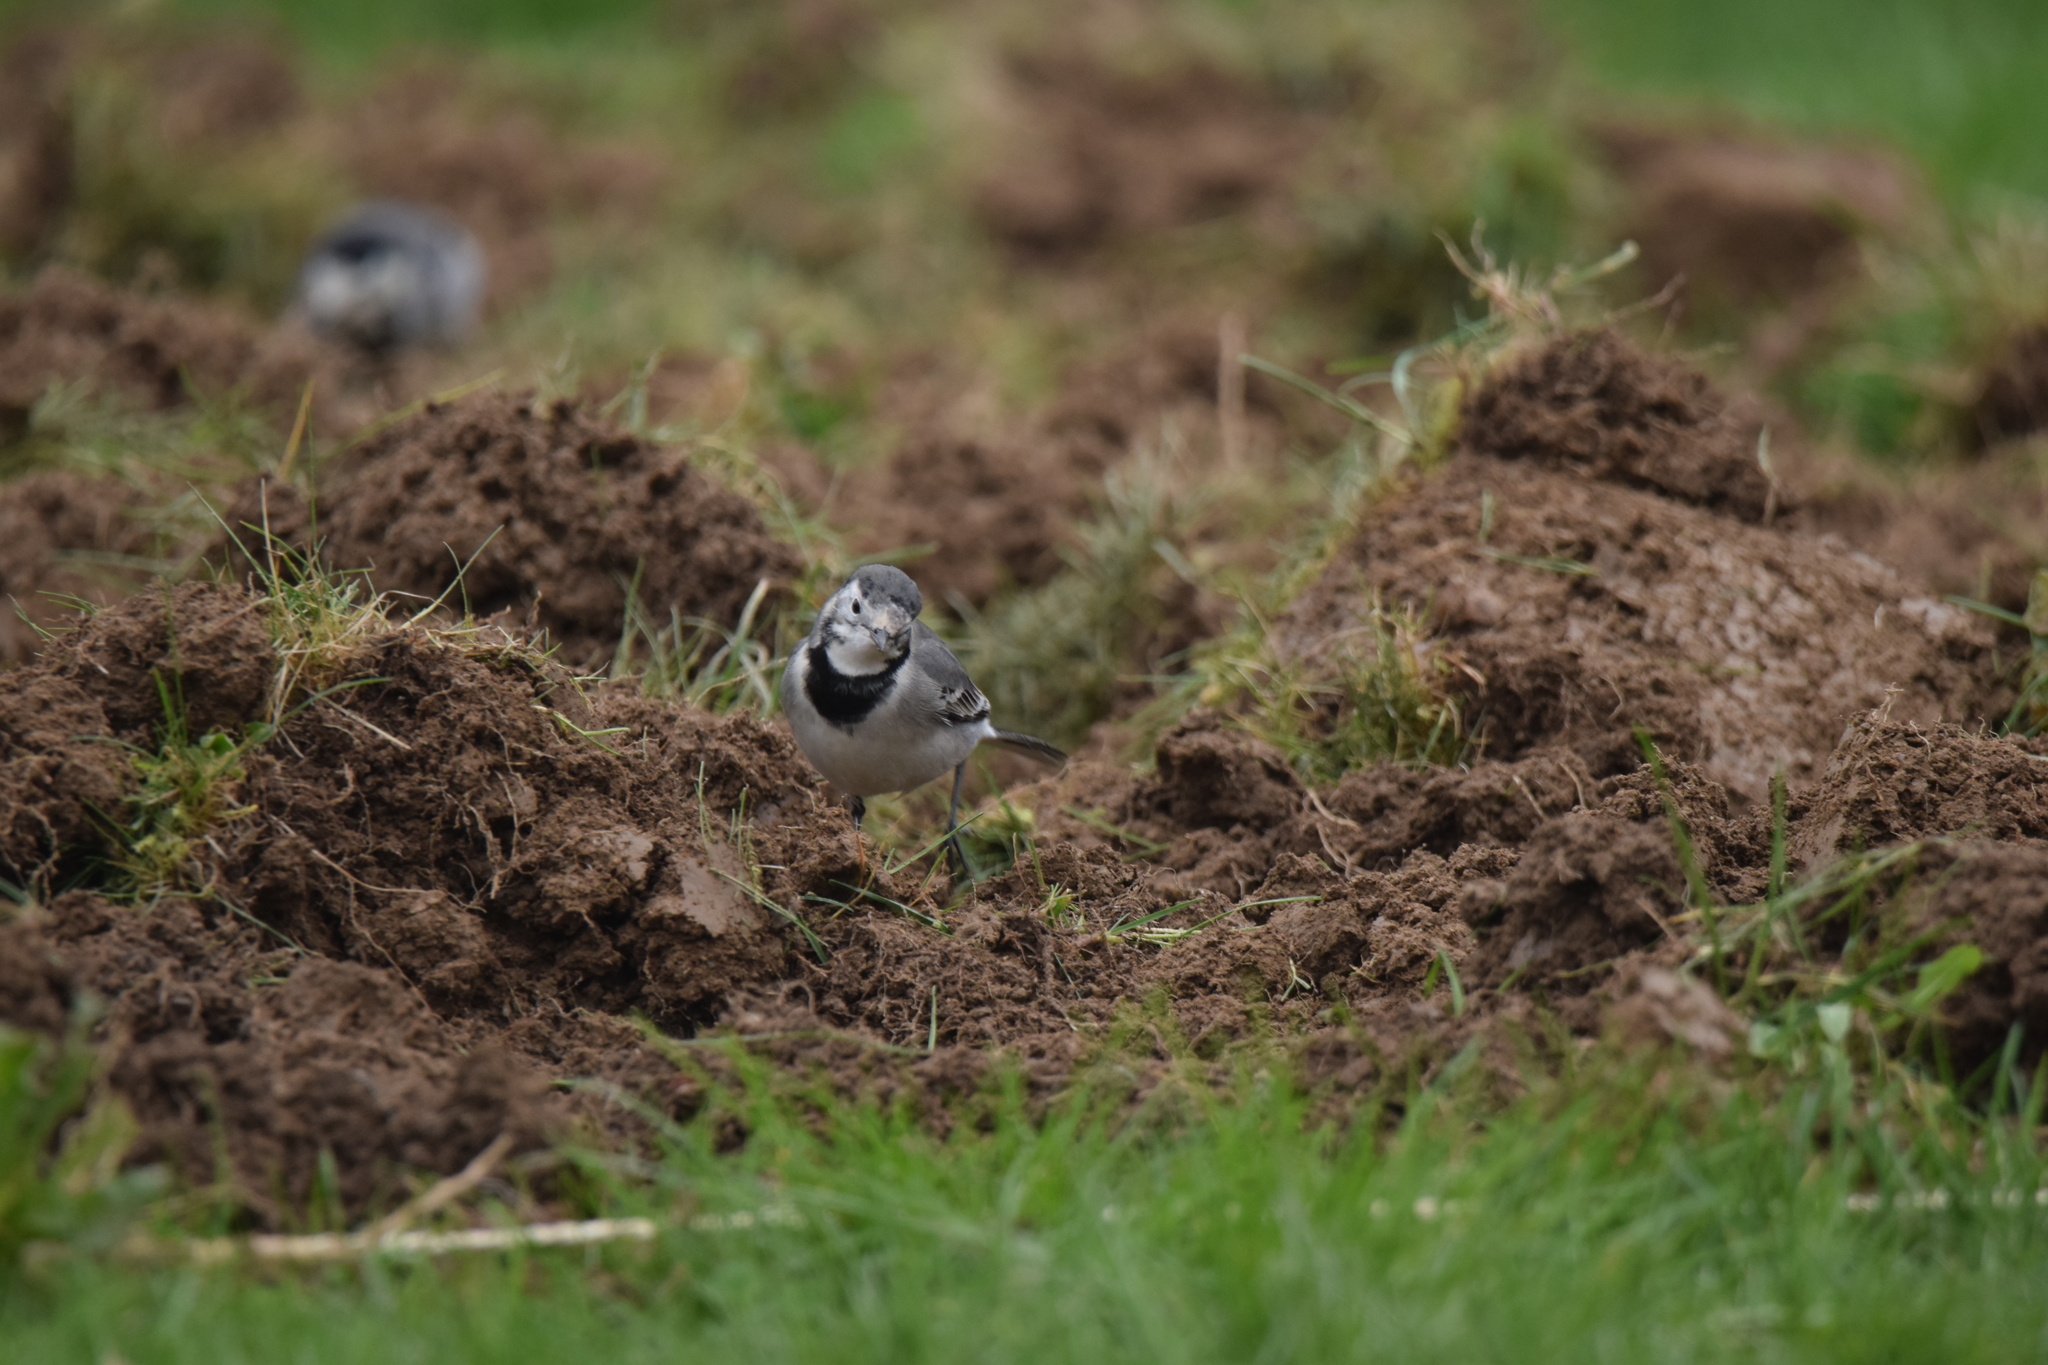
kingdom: Animalia
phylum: Chordata
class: Aves
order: Passeriformes
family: Motacillidae
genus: Motacilla
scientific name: Motacilla alba
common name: White wagtail
